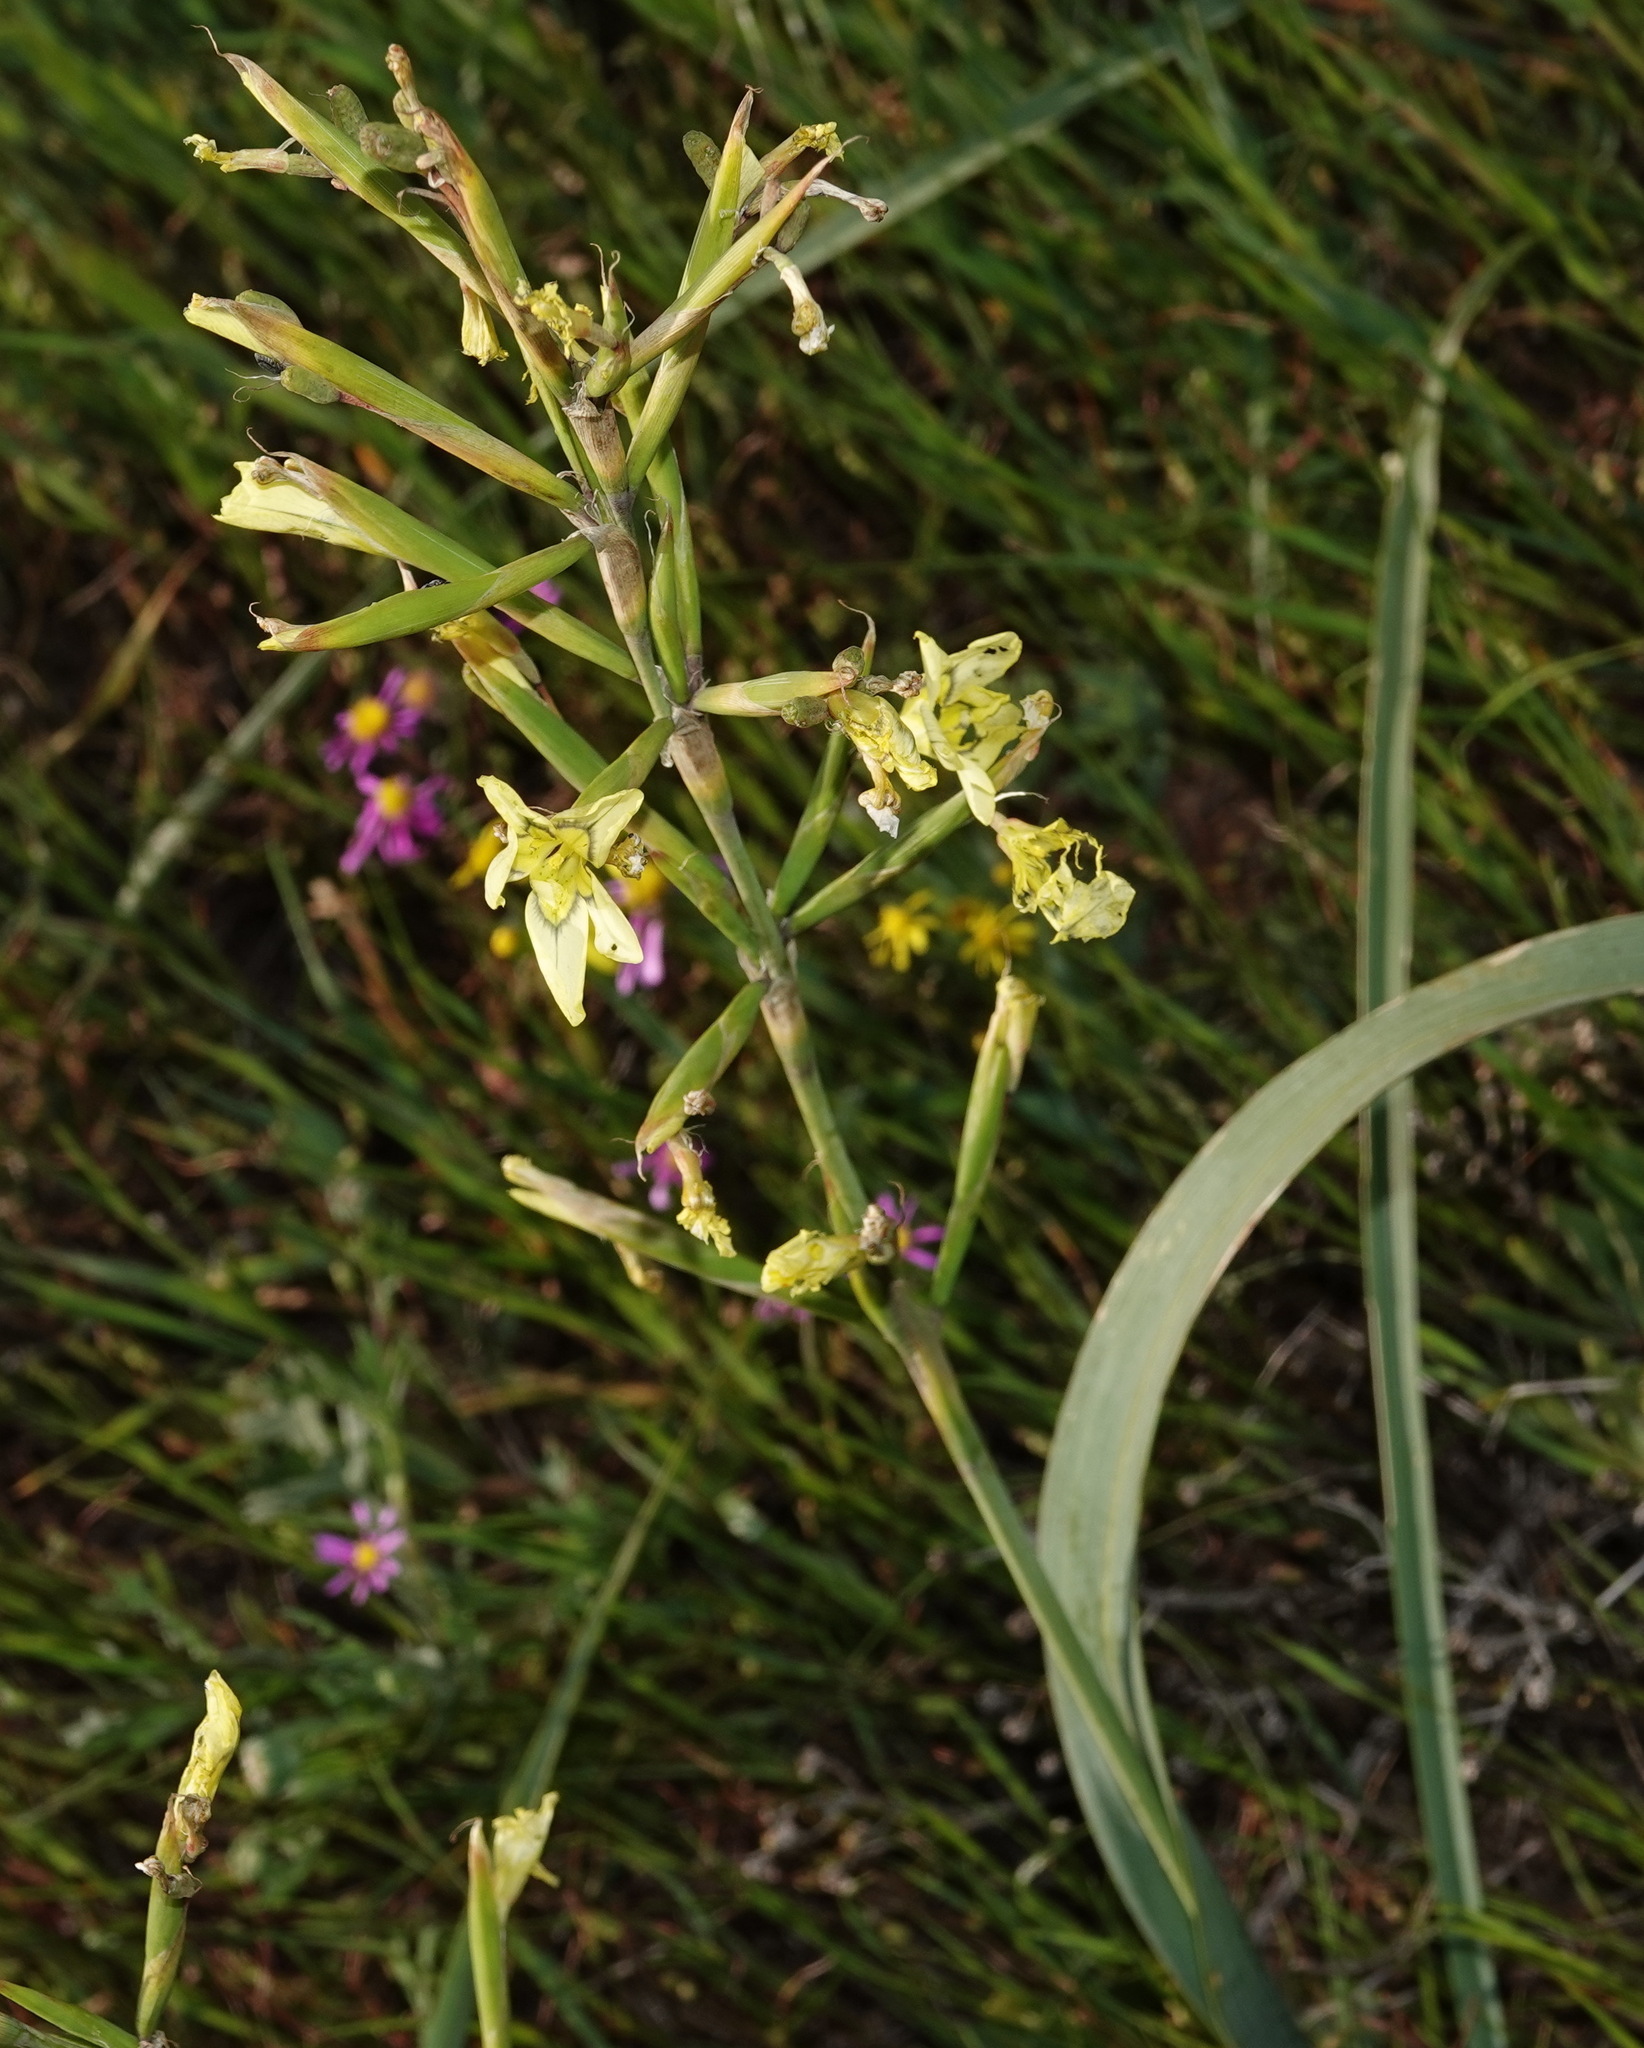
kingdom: Plantae
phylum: Tracheophyta
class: Liliopsida
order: Asparagales
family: Iridaceae
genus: Moraea
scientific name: Moraea fragrans
